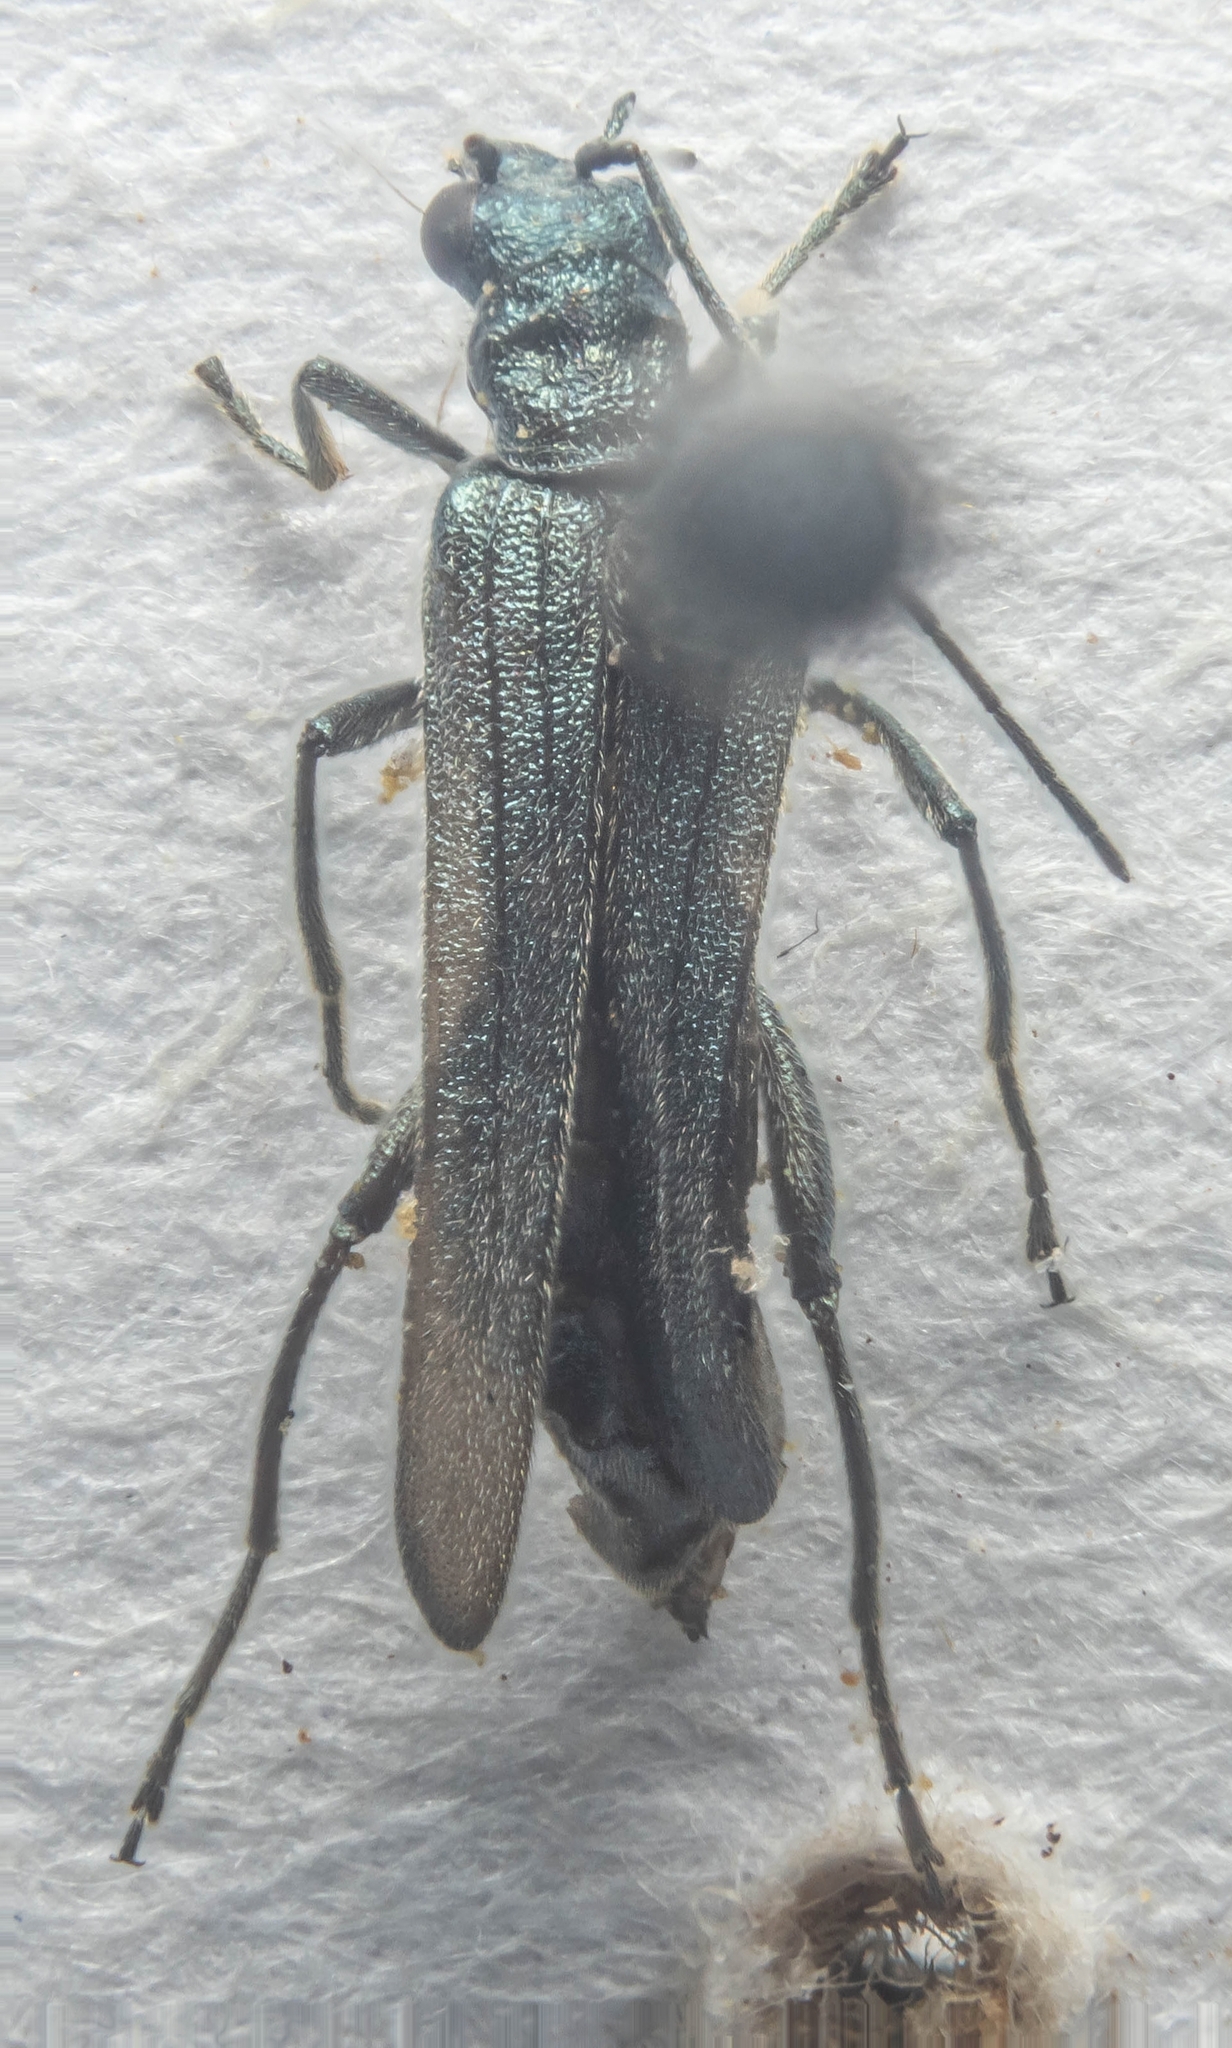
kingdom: Animalia
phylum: Arthropoda
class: Insecta
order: Coleoptera
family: Oedemeridae
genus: Oedemera
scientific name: Oedemera lurida
